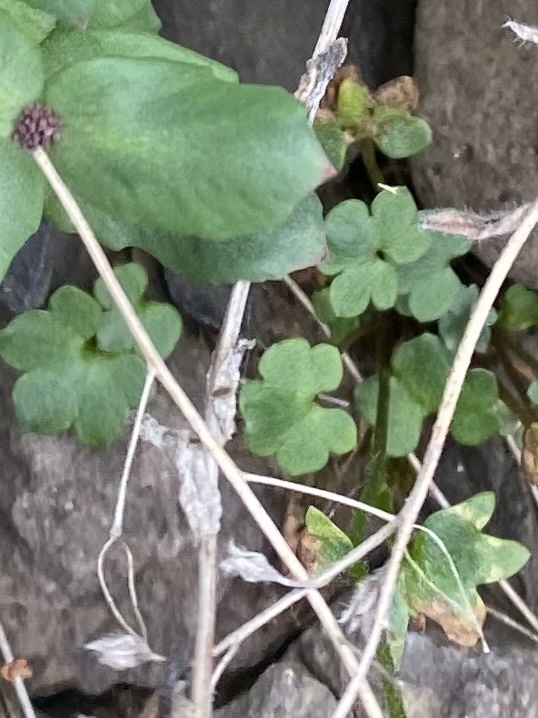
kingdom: Plantae
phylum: Tracheophyta
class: Magnoliopsida
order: Saxifragales
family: Saxifragaceae
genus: Saxifraga
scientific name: Saxifraga cernua
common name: Drooping saxifrage
